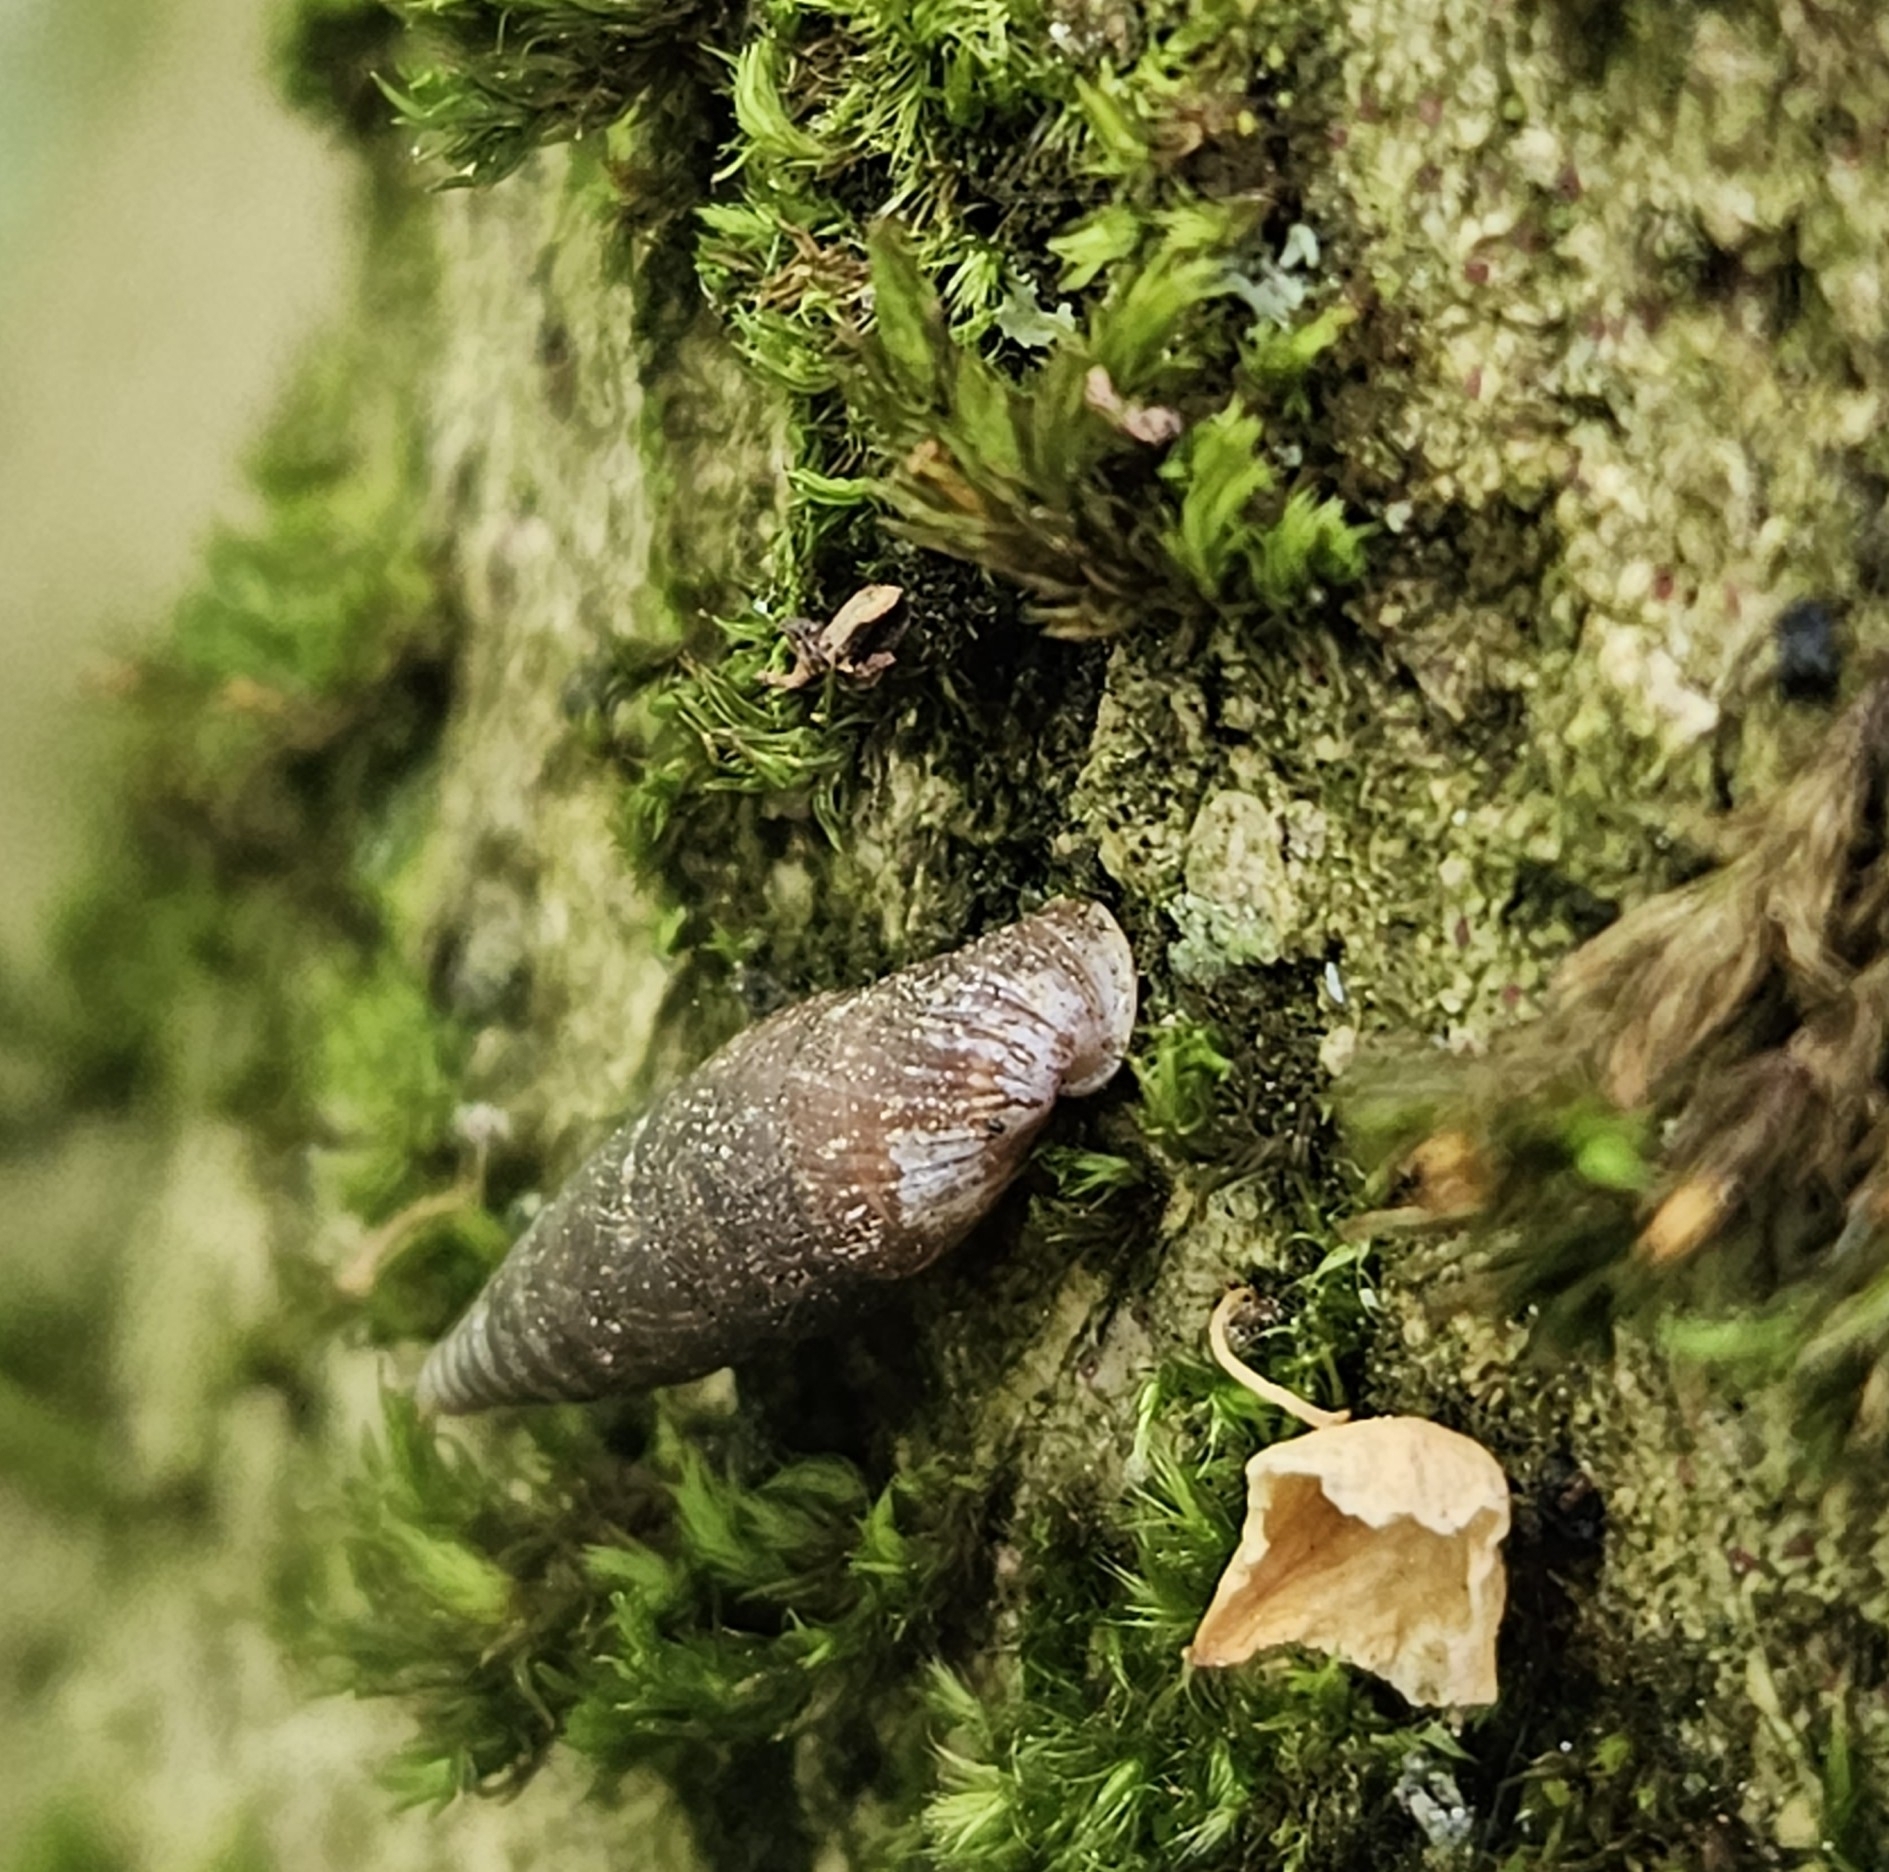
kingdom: Animalia
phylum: Mollusca
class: Gastropoda
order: Stylommatophora
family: Clausiliidae
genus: Cochlodina
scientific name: Cochlodina laminata
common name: Plaited door snail
